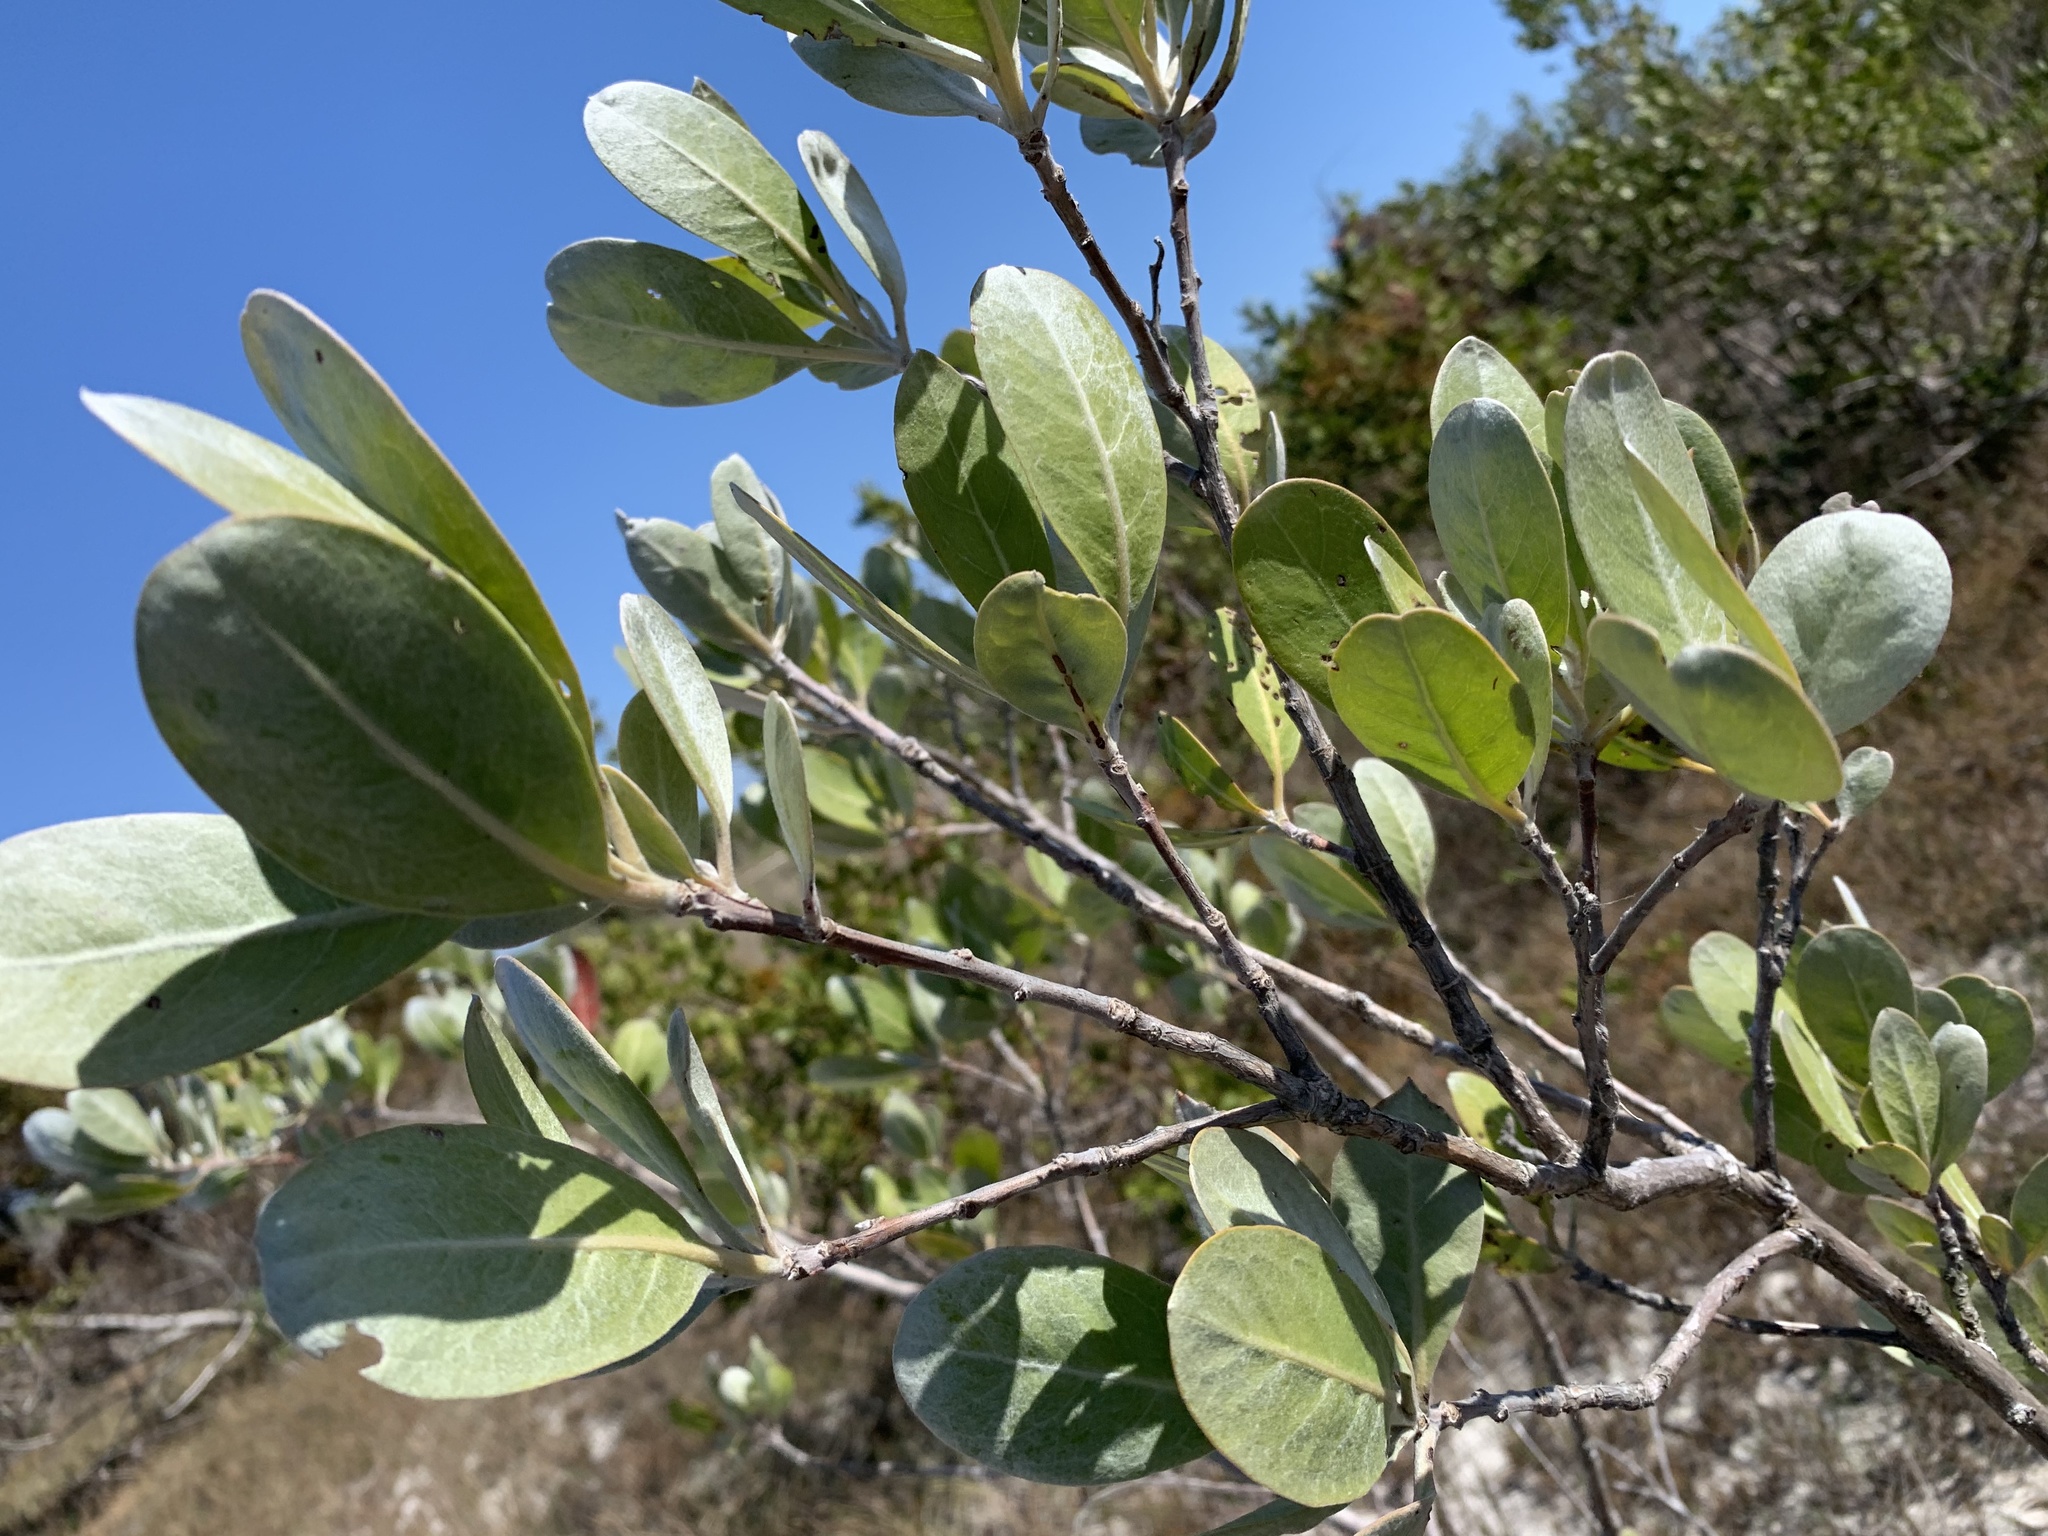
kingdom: Plantae
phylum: Tracheophyta
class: Magnoliopsida
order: Myrtales
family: Combretaceae
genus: Conocarpus
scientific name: Conocarpus erectus
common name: Button mangrove
